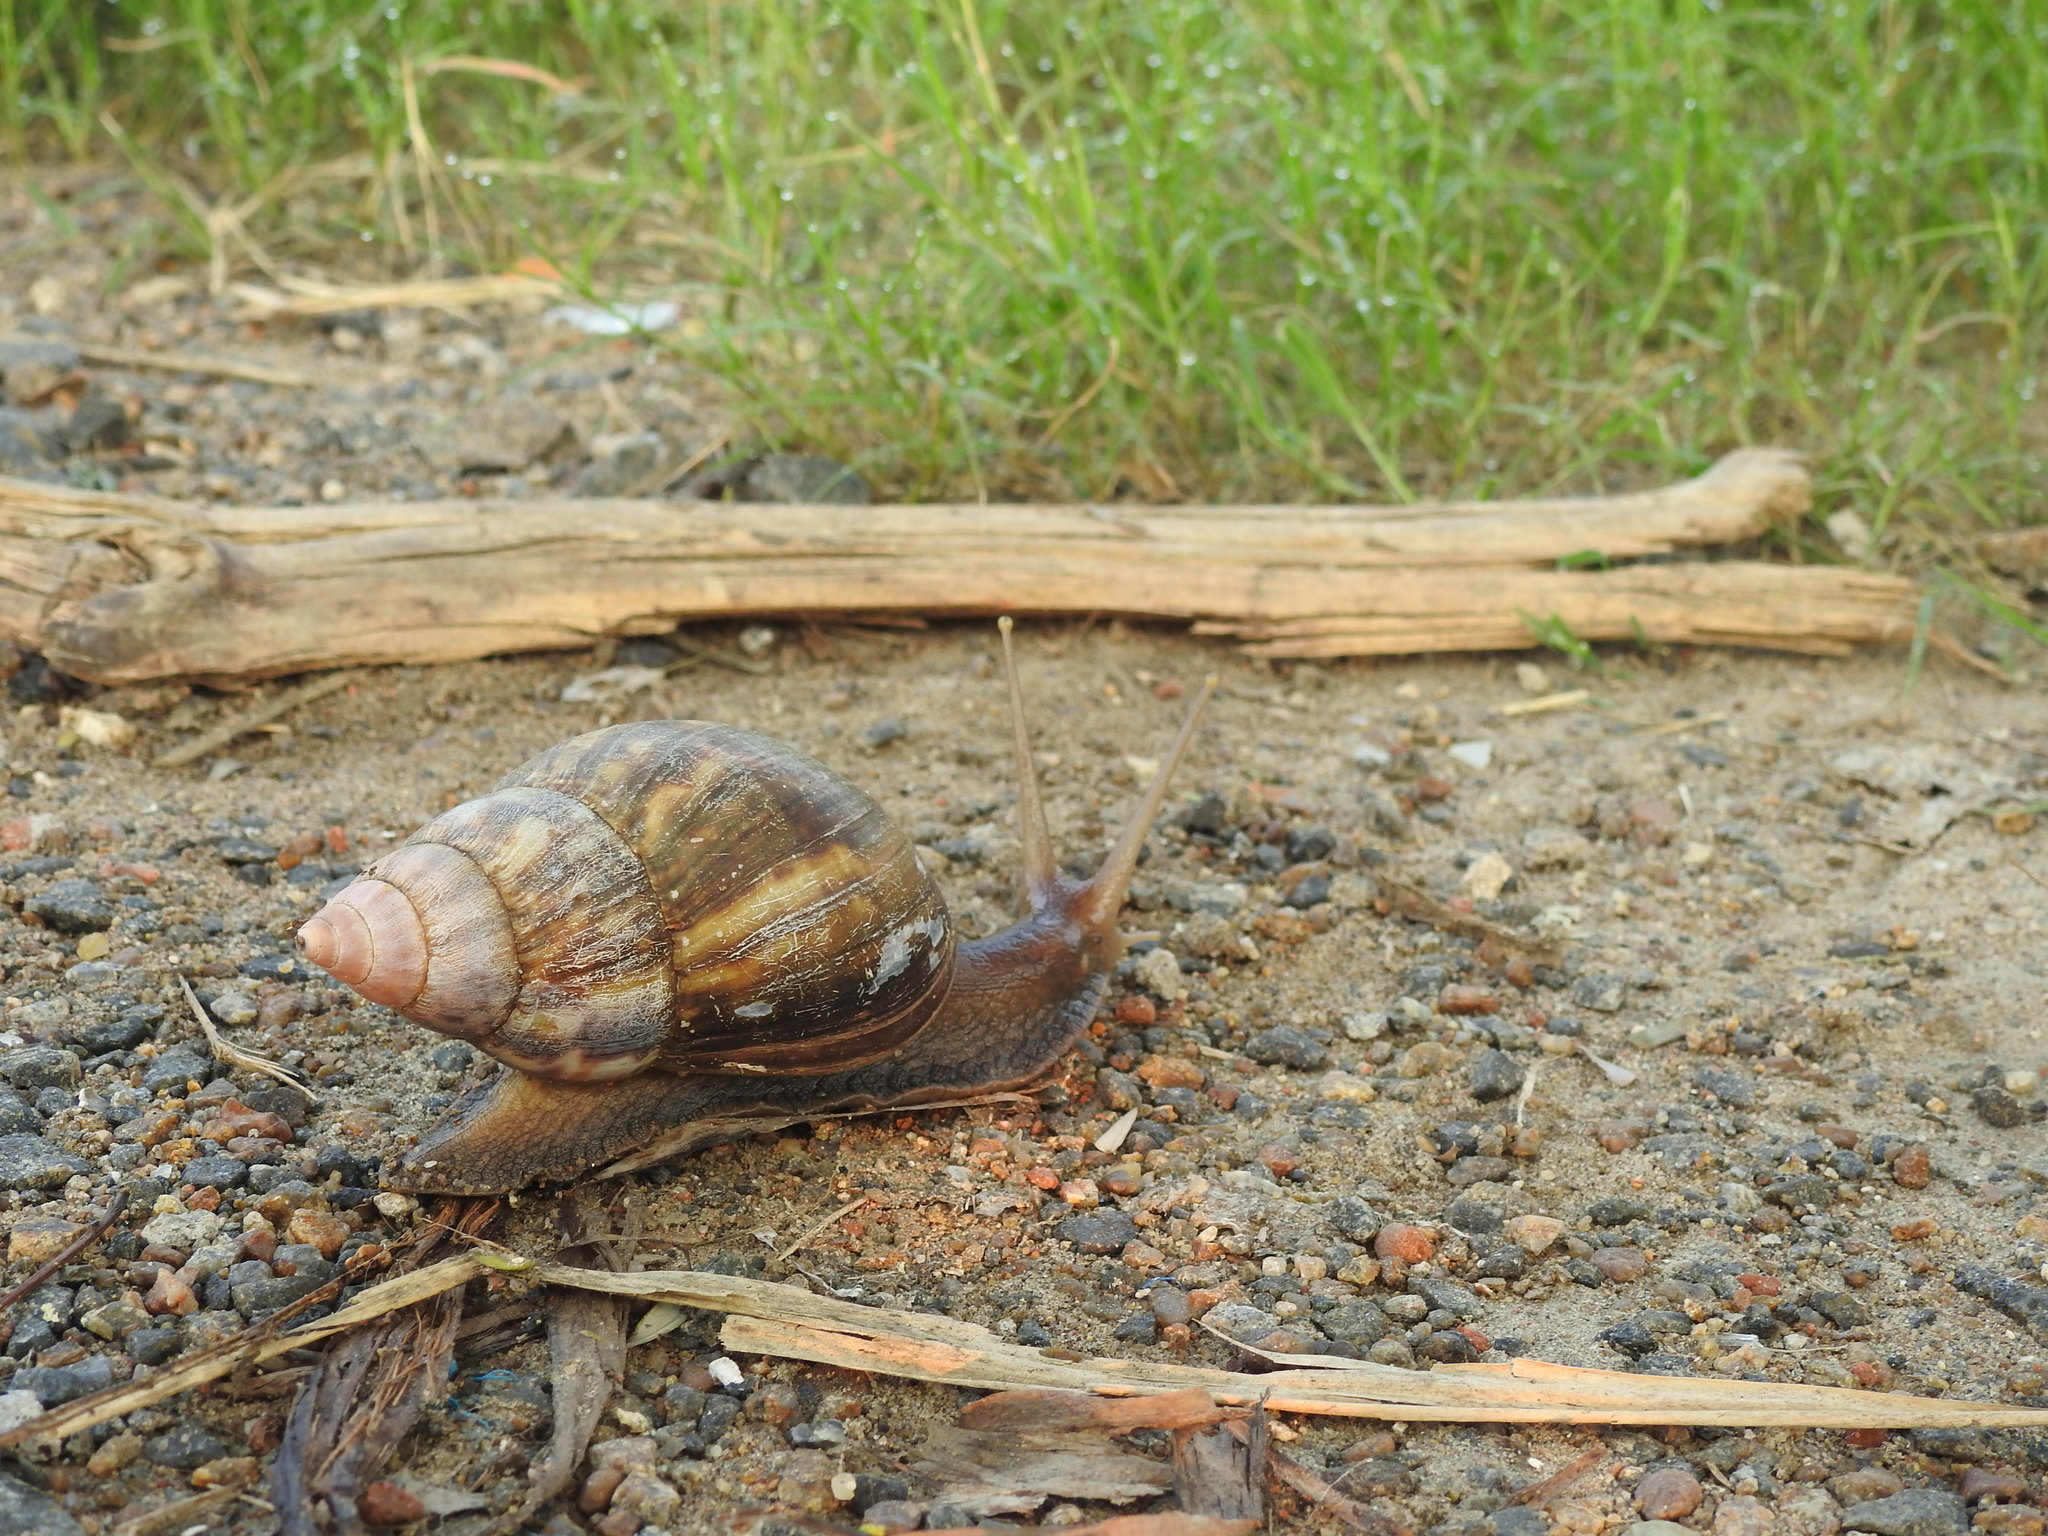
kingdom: Animalia
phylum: Mollusca
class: Gastropoda
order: Stylommatophora
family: Achatinidae
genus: Lissachatina
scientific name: Lissachatina fulica
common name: Giant african snail
